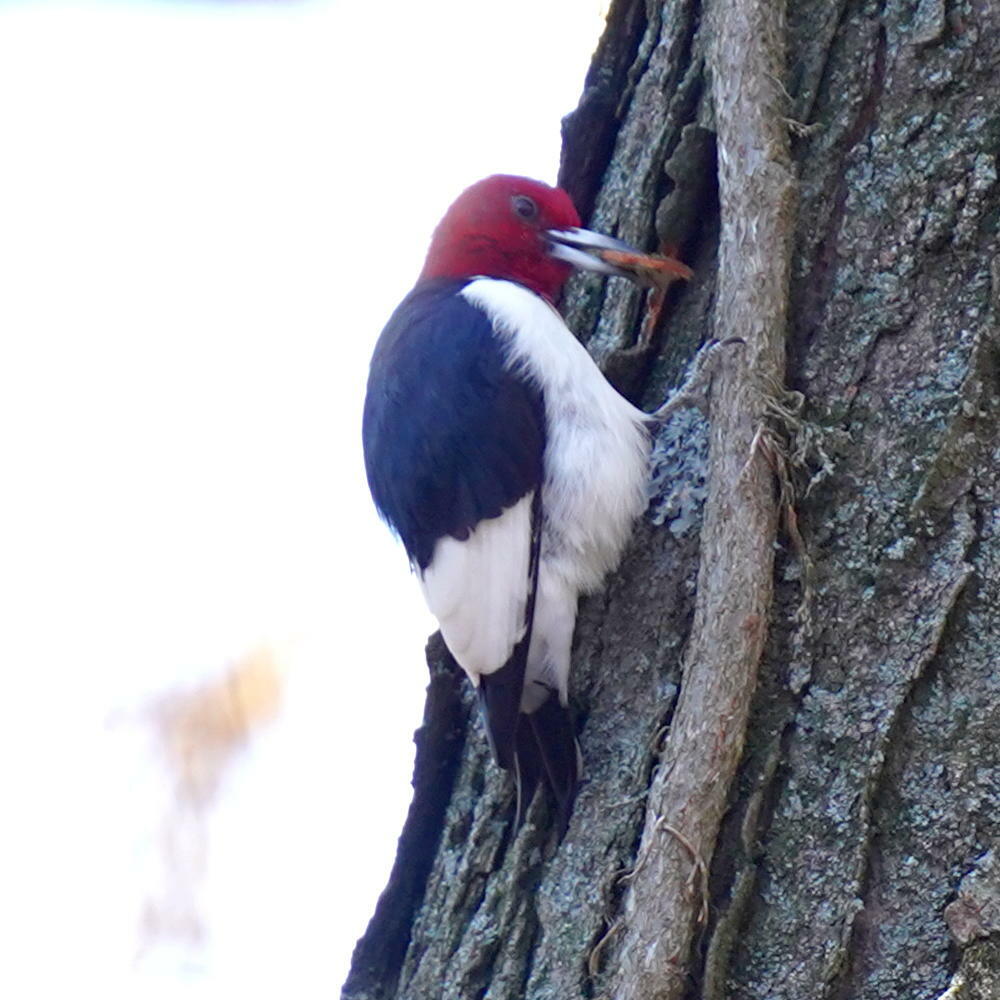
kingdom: Animalia
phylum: Chordata
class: Aves
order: Piciformes
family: Picidae
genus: Melanerpes
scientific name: Melanerpes erythrocephalus
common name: Red-headed woodpecker
